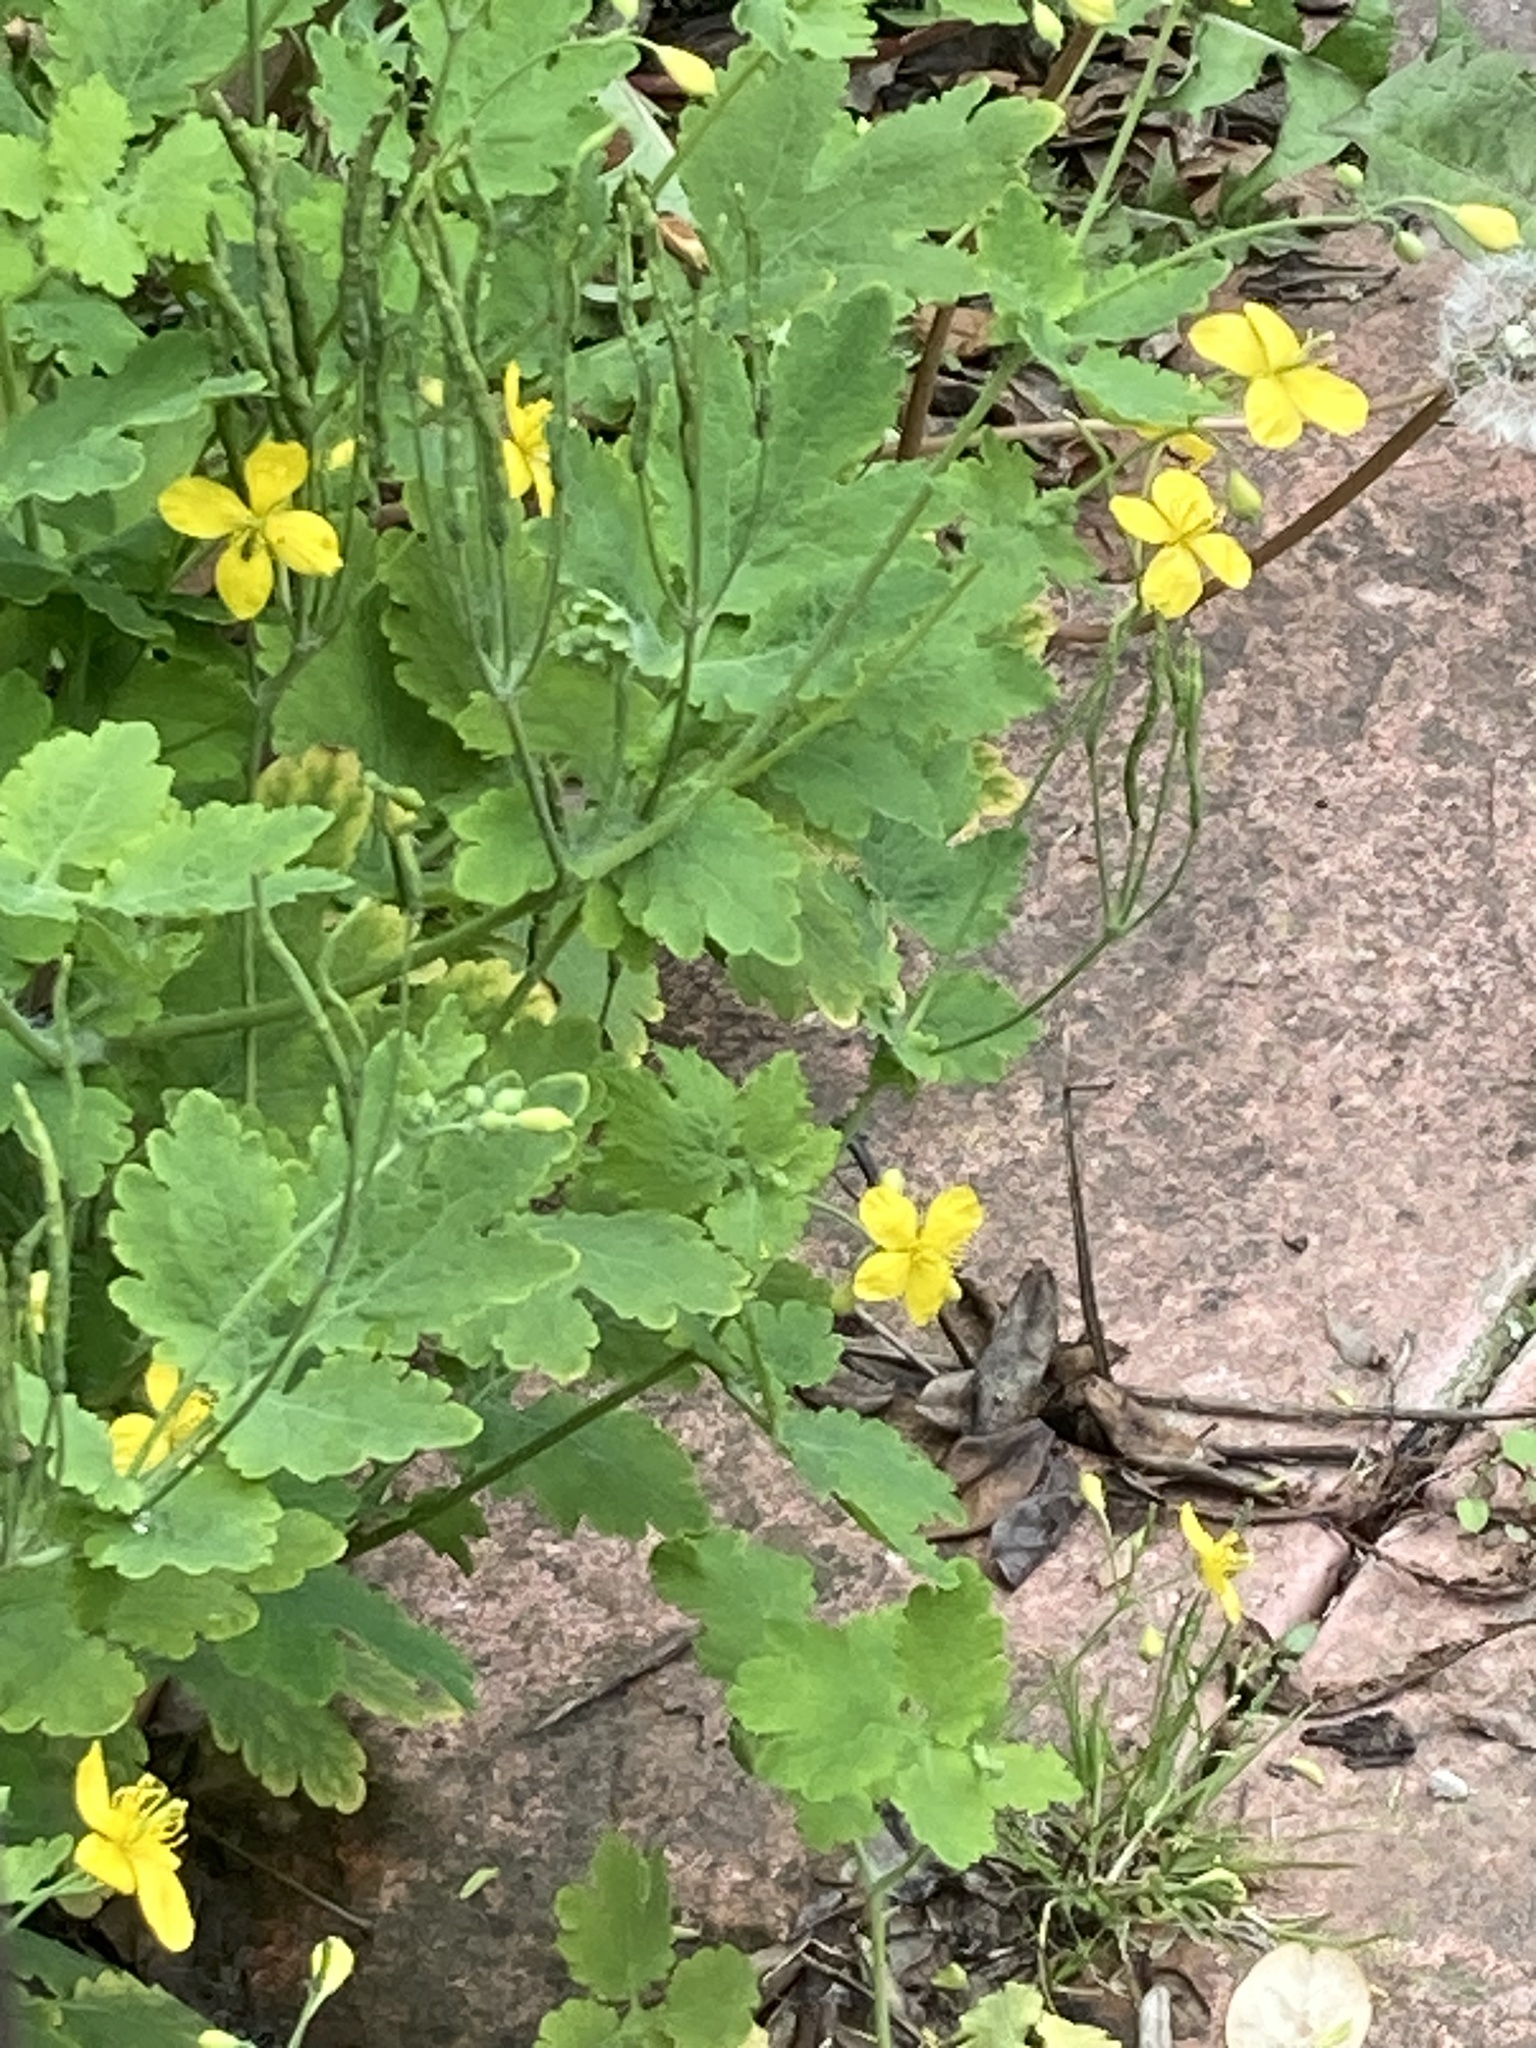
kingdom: Plantae
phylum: Tracheophyta
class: Magnoliopsida
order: Ranunculales
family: Papaveraceae
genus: Chelidonium
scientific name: Chelidonium majus
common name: Greater celandine
